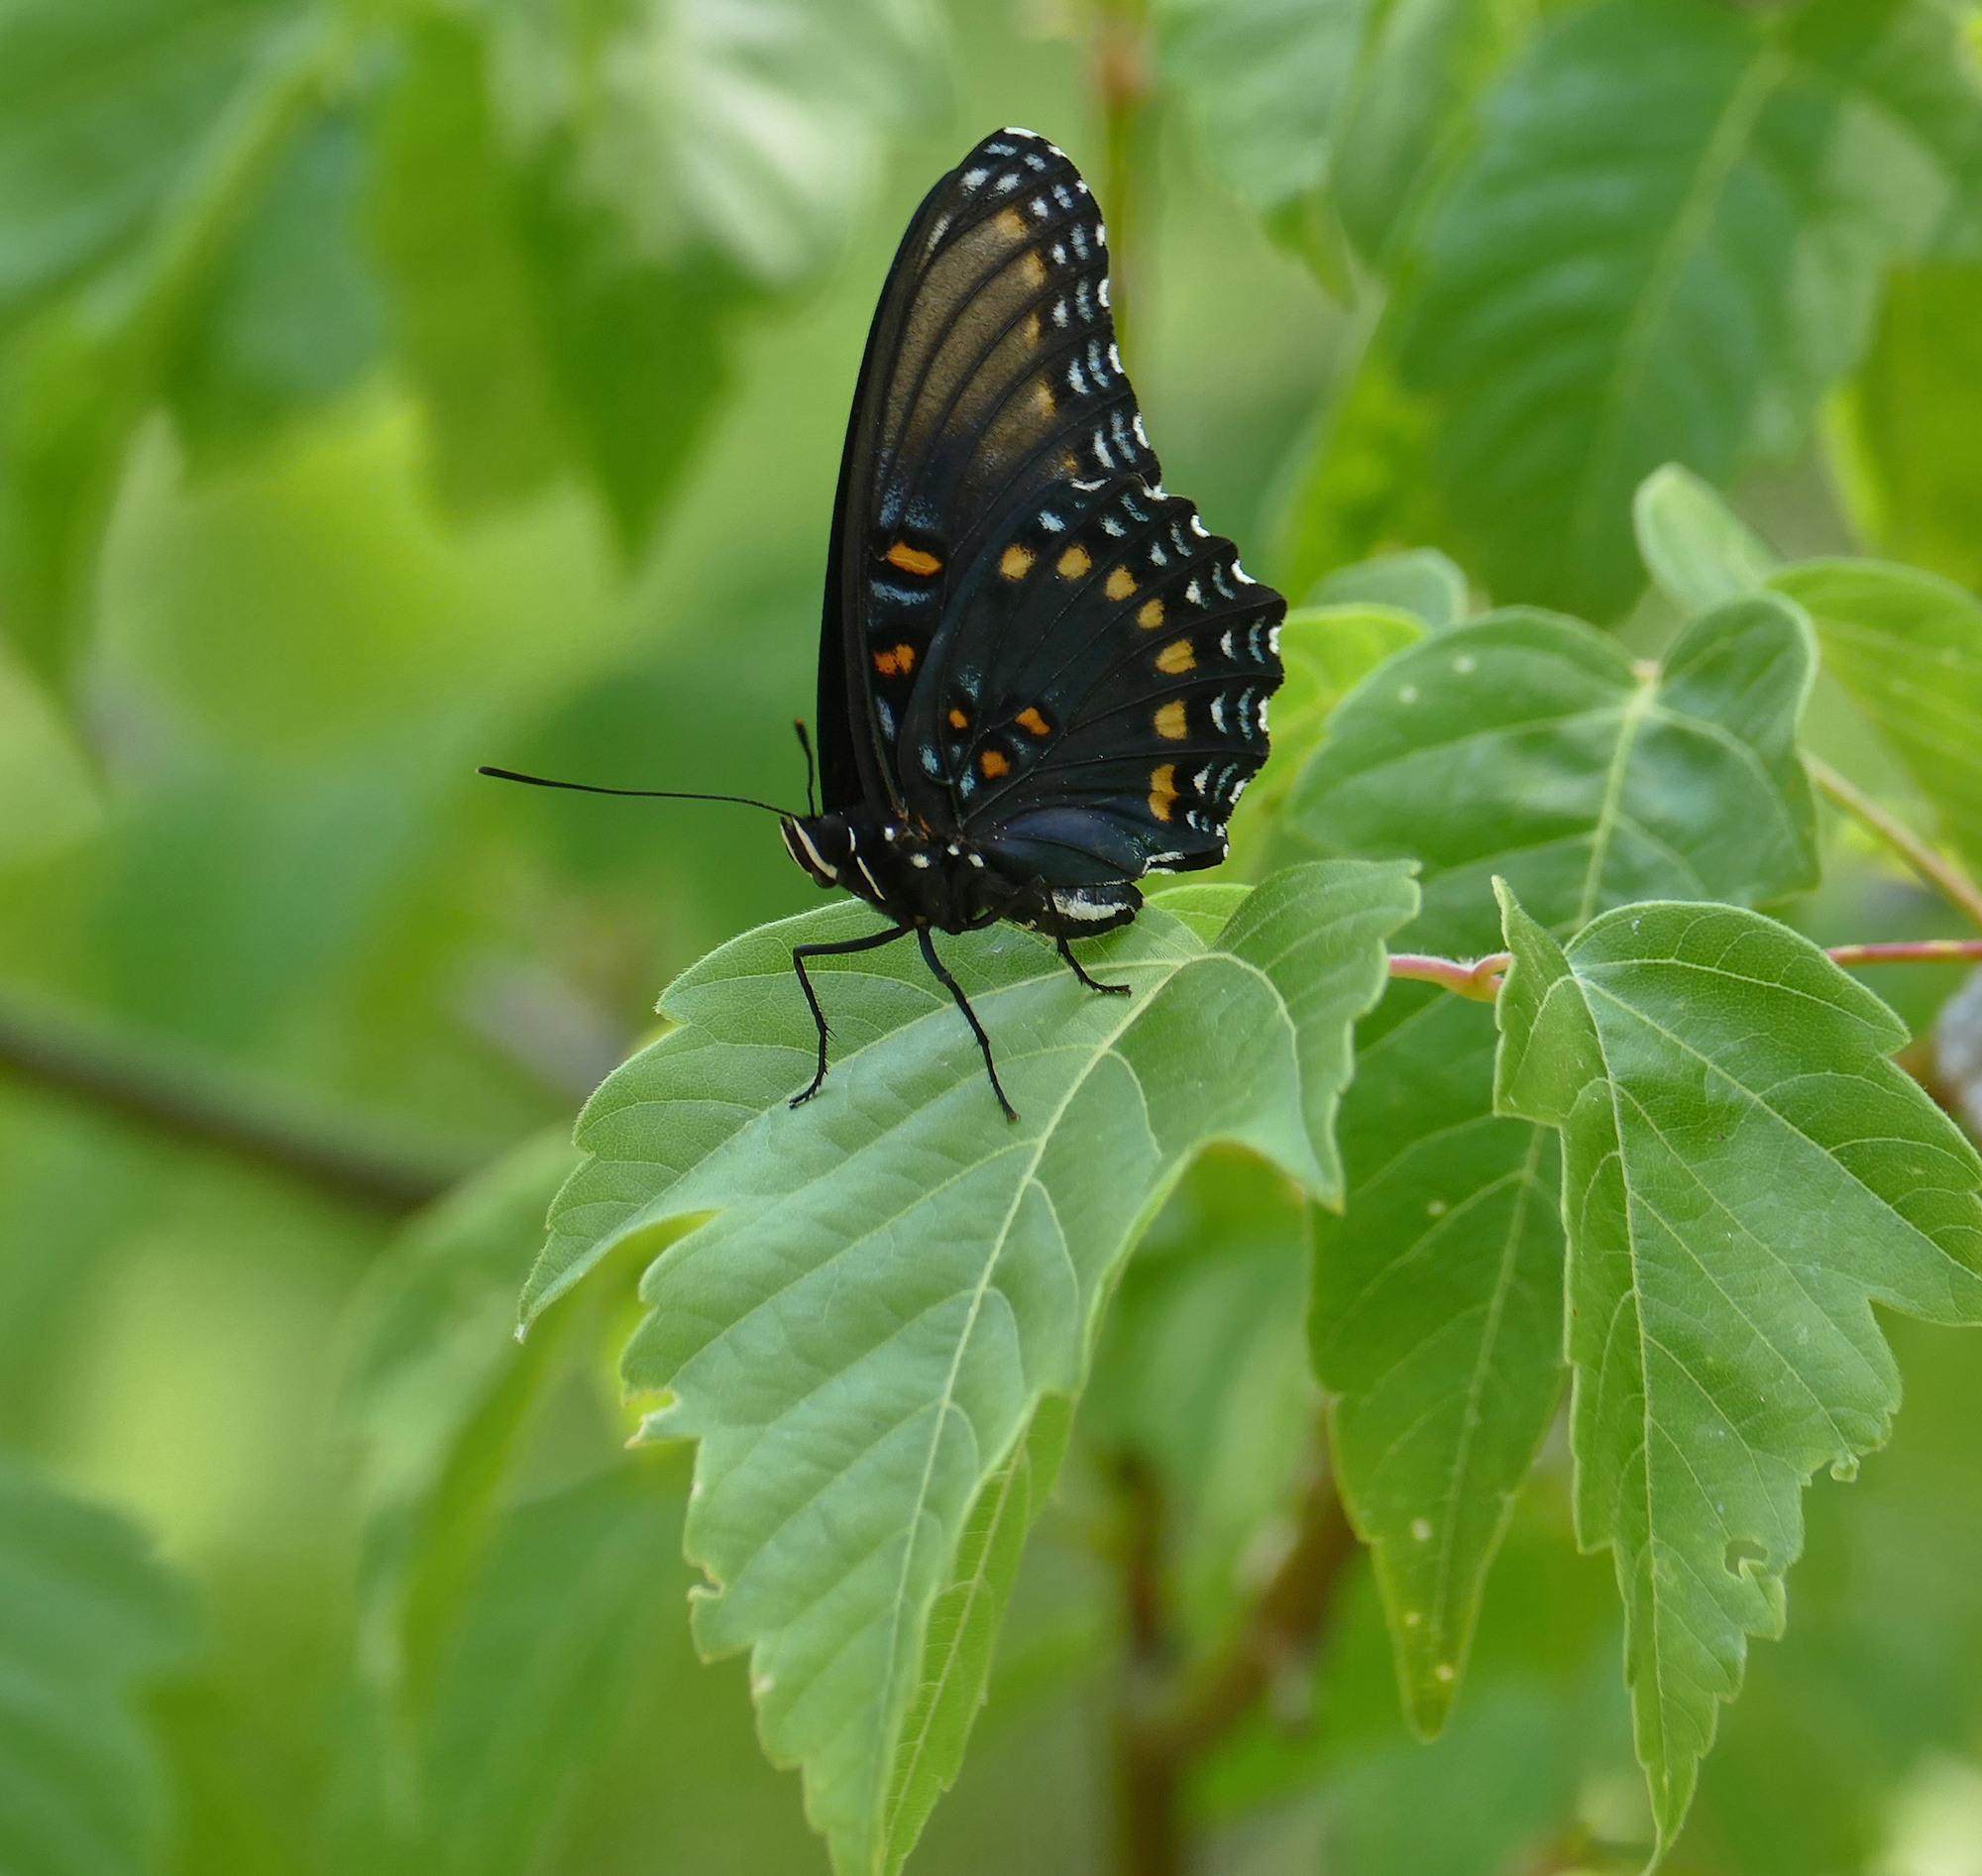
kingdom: Animalia
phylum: Arthropoda
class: Insecta
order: Lepidoptera
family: Nymphalidae
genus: Limenitis
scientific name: Limenitis arthemis
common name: Red-spotted admiral
